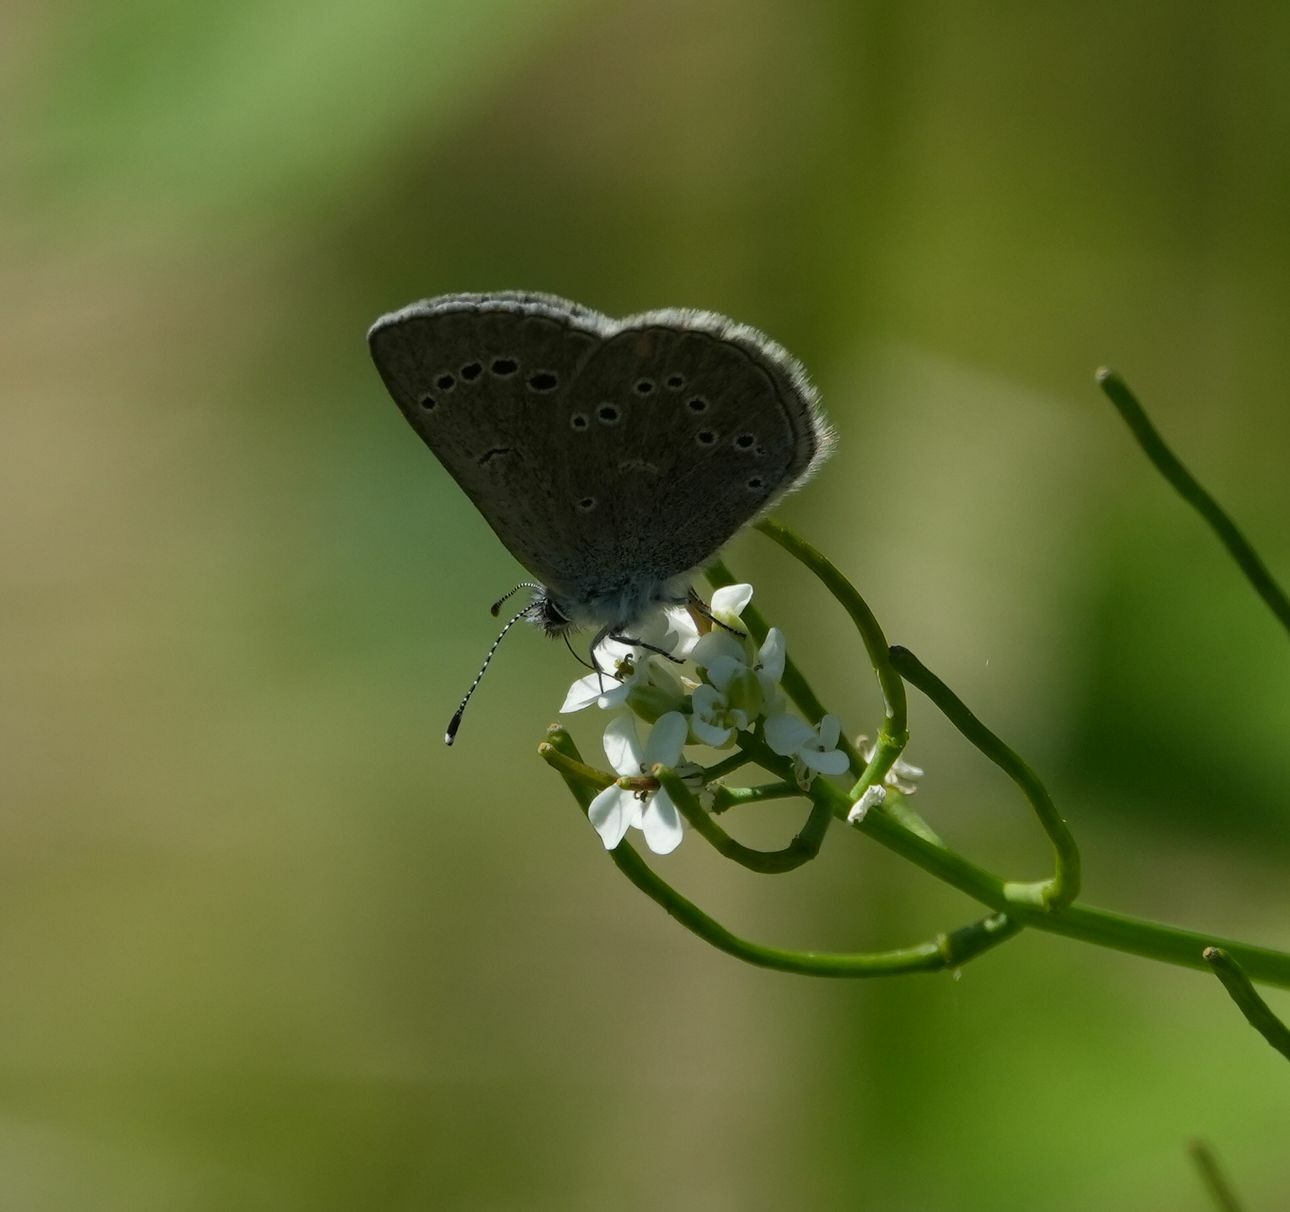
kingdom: Animalia
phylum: Arthropoda
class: Insecta
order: Lepidoptera
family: Lycaenidae
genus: Glaucopsyche
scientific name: Glaucopsyche lygdamus
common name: Silvery blue
